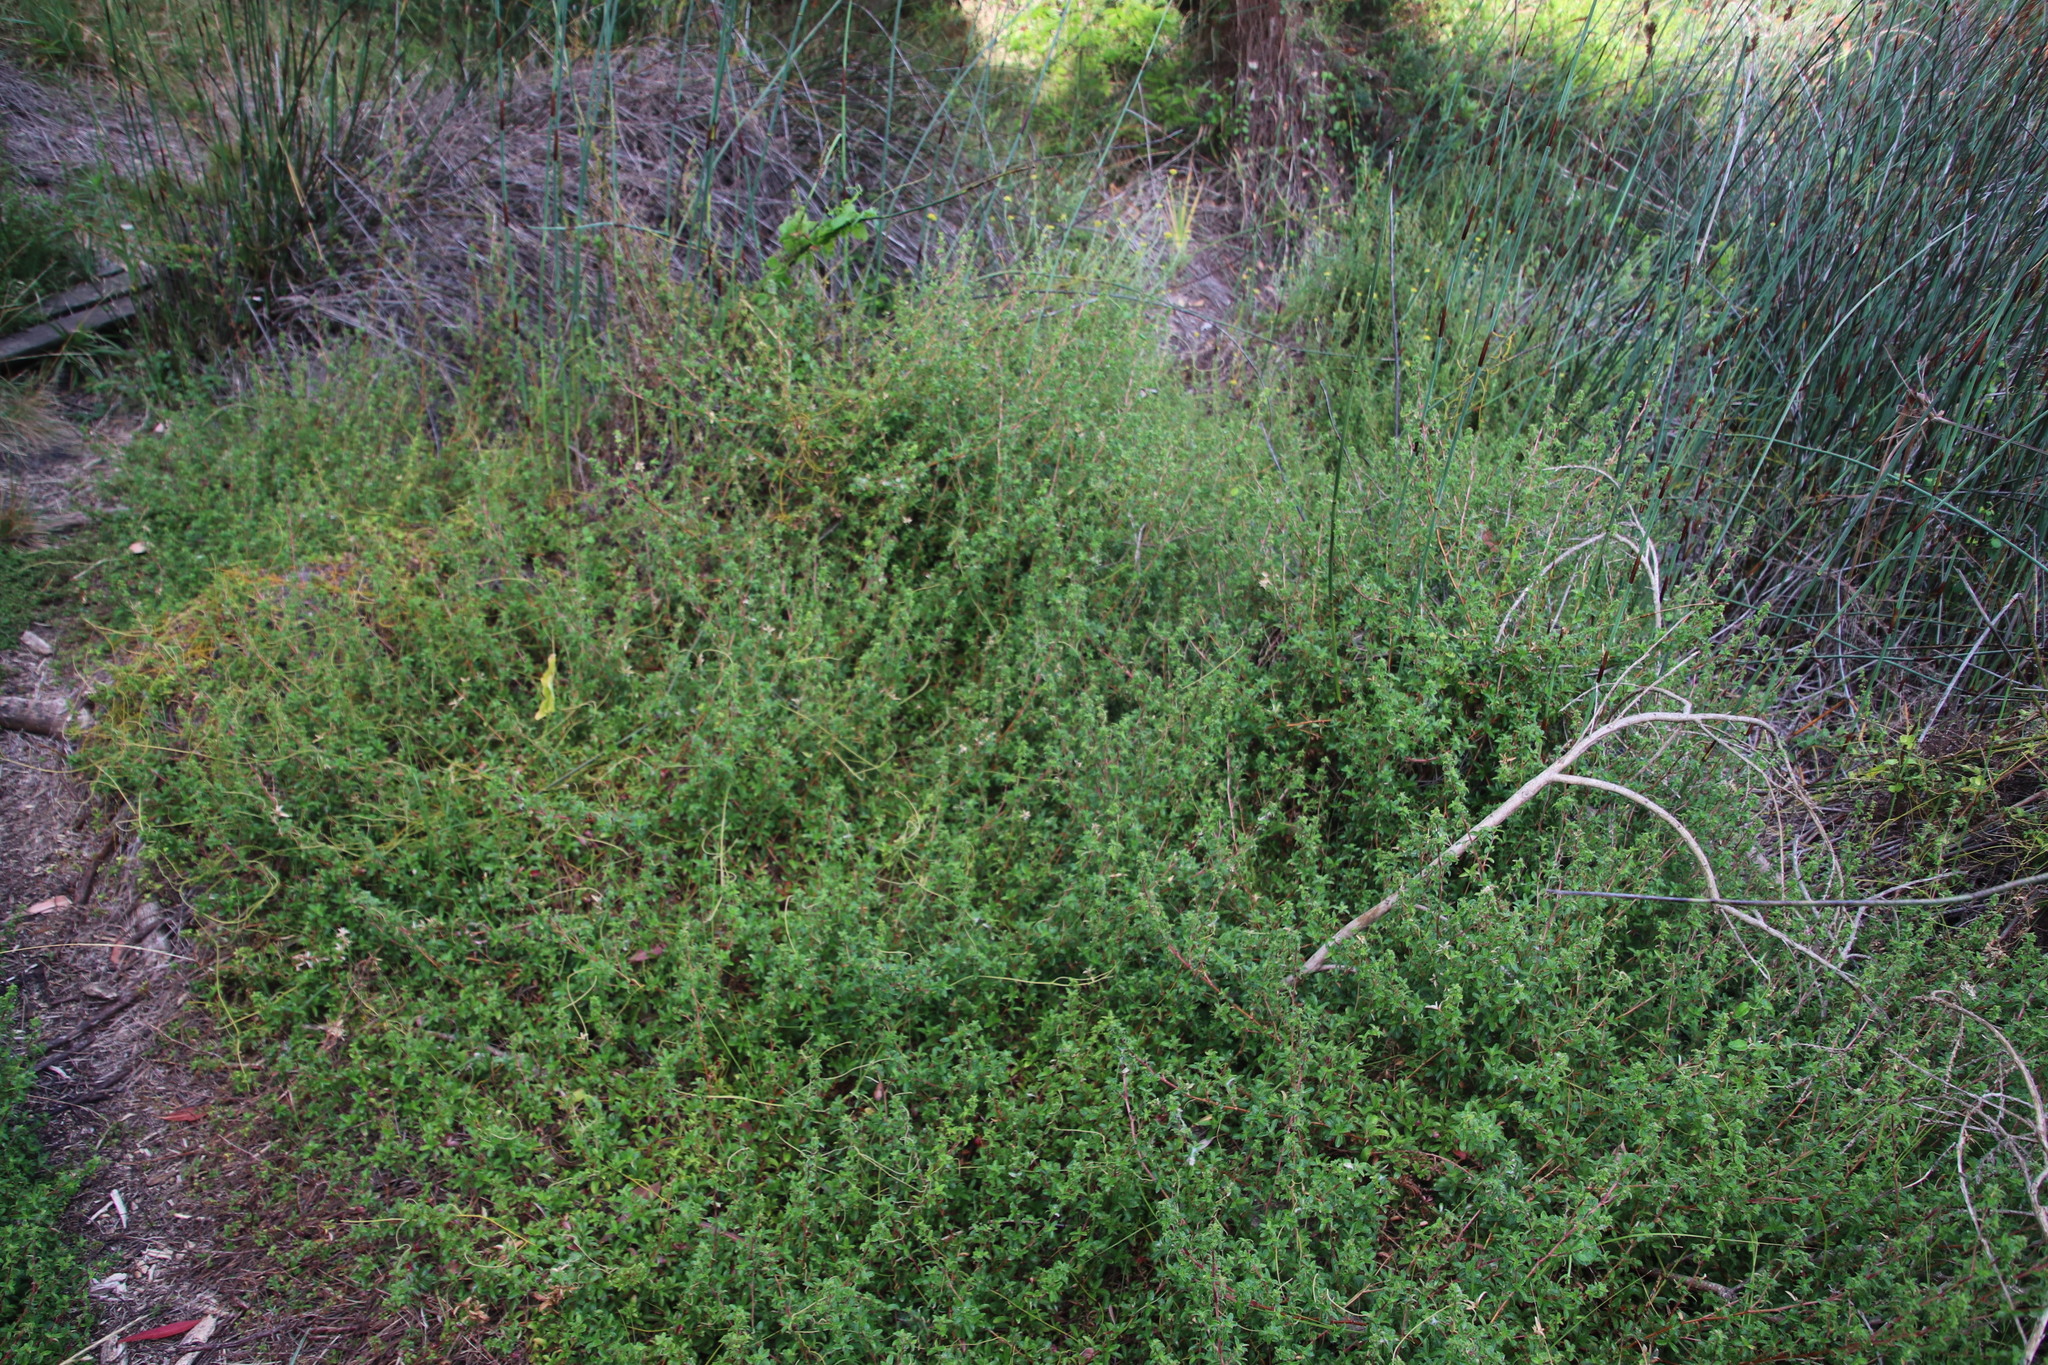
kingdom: Plantae
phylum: Tracheophyta
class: Magnoliopsida
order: Rosales
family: Rosaceae
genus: Cliffortia
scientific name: Cliffortia ferruginea
